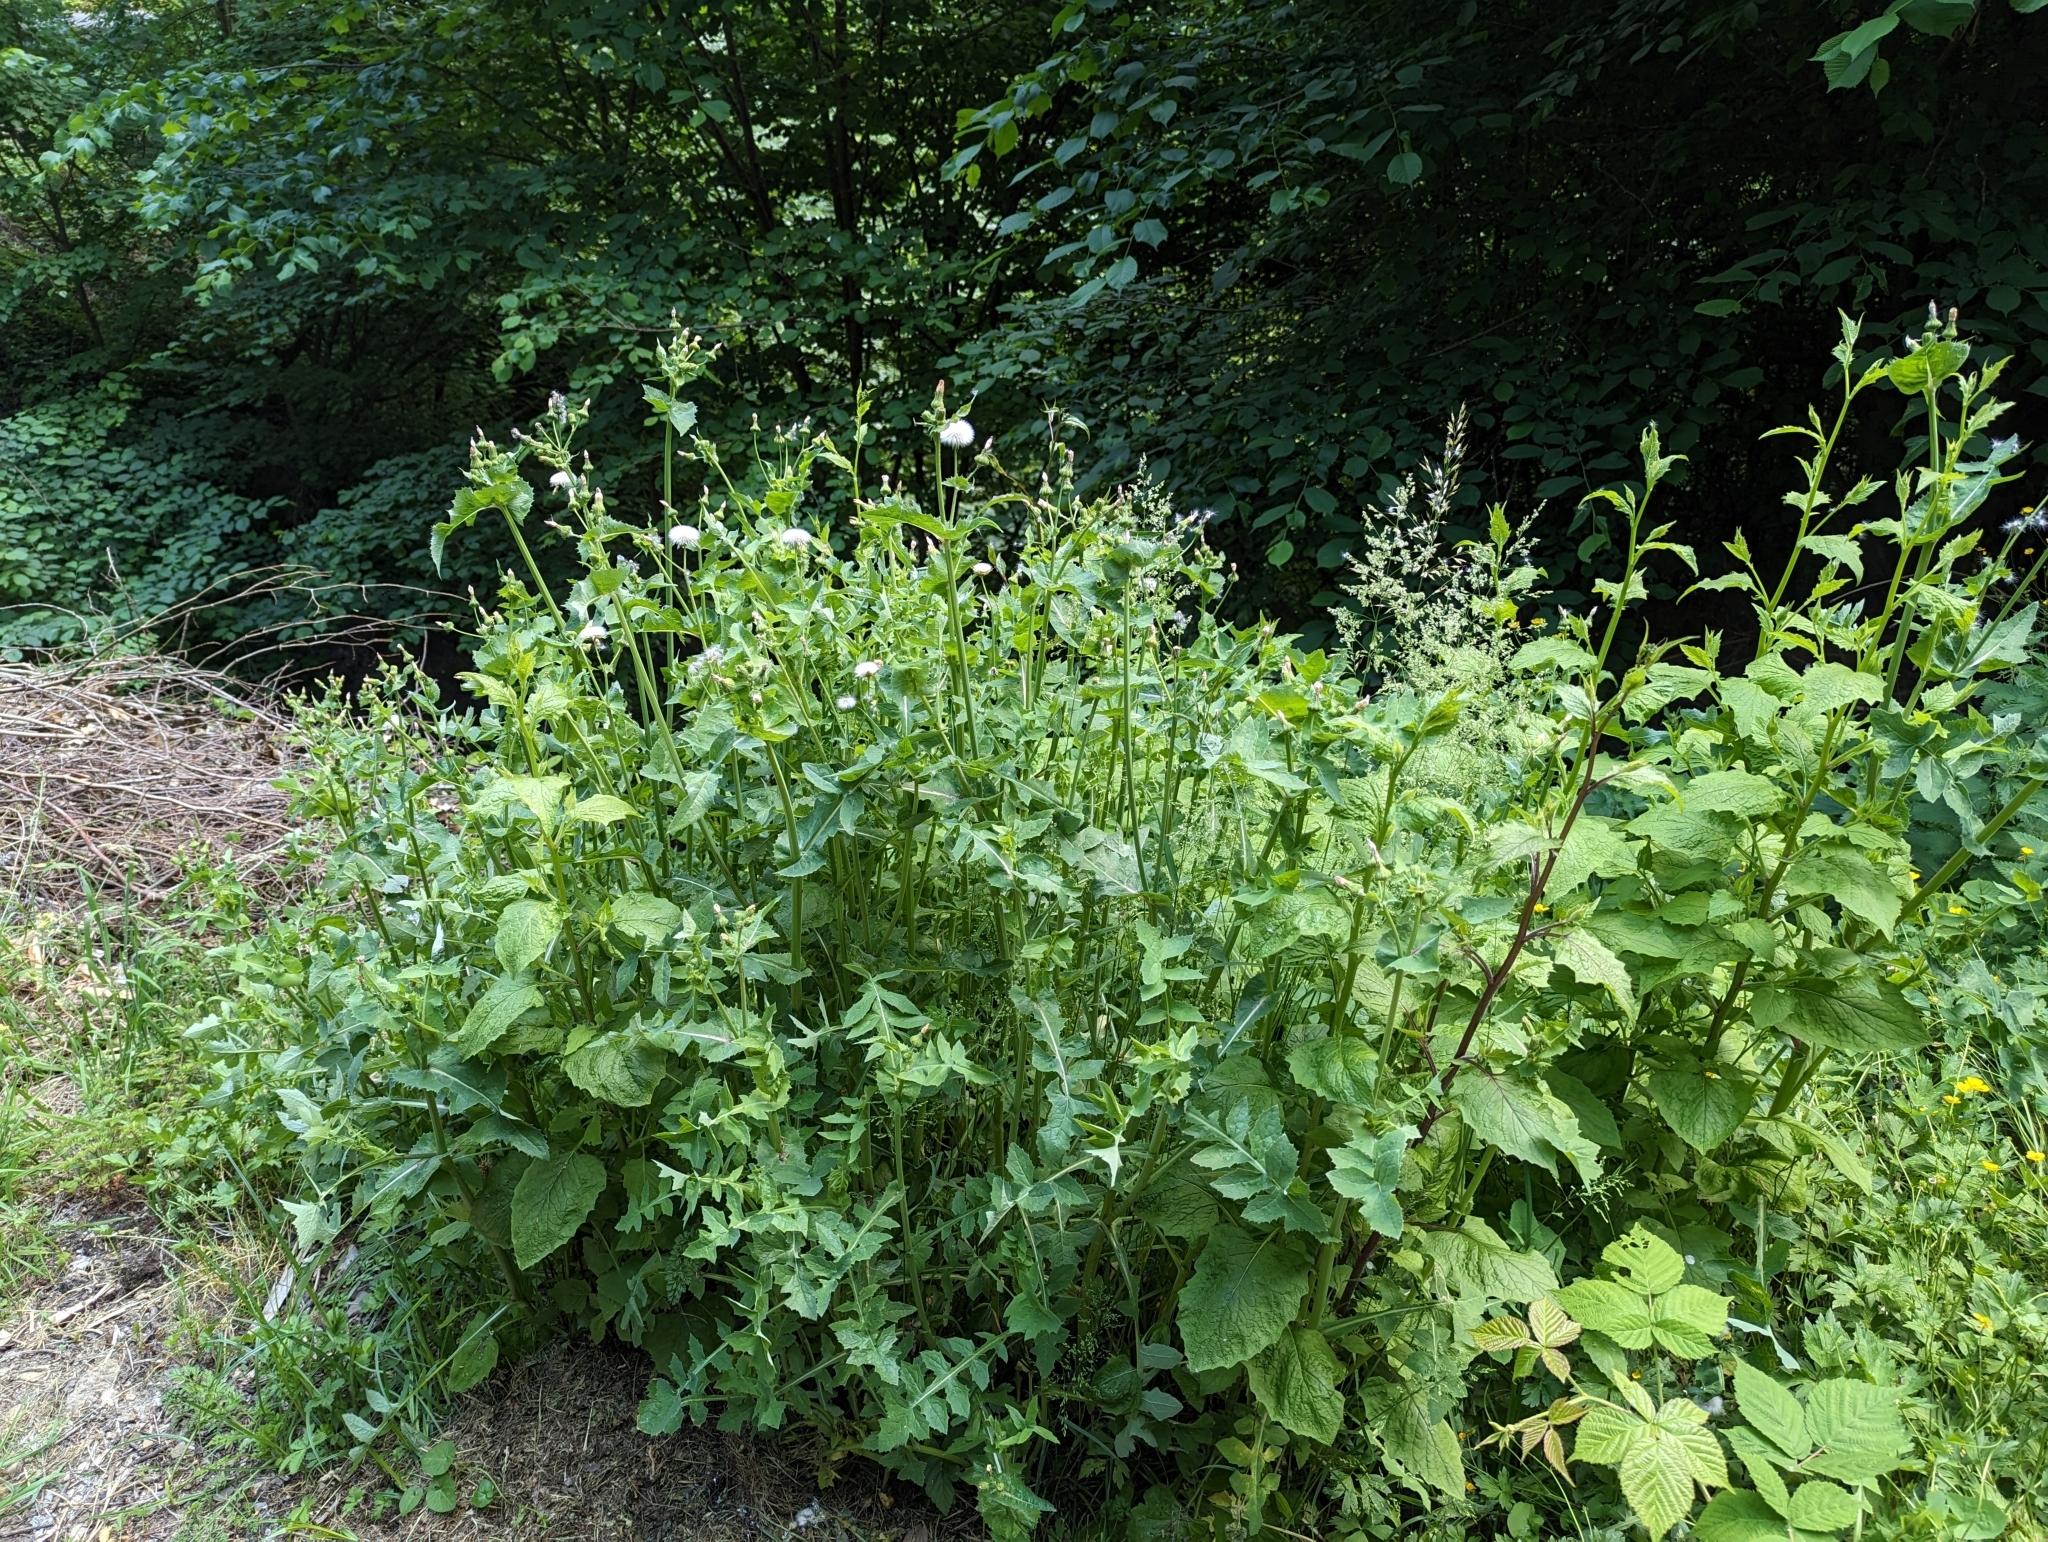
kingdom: Plantae
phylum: Tracheophyta
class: Magnoliopsida
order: Asterales
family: Asteraceae
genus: Sonchus
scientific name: Sonchus oleraceus
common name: Common sowthistle
